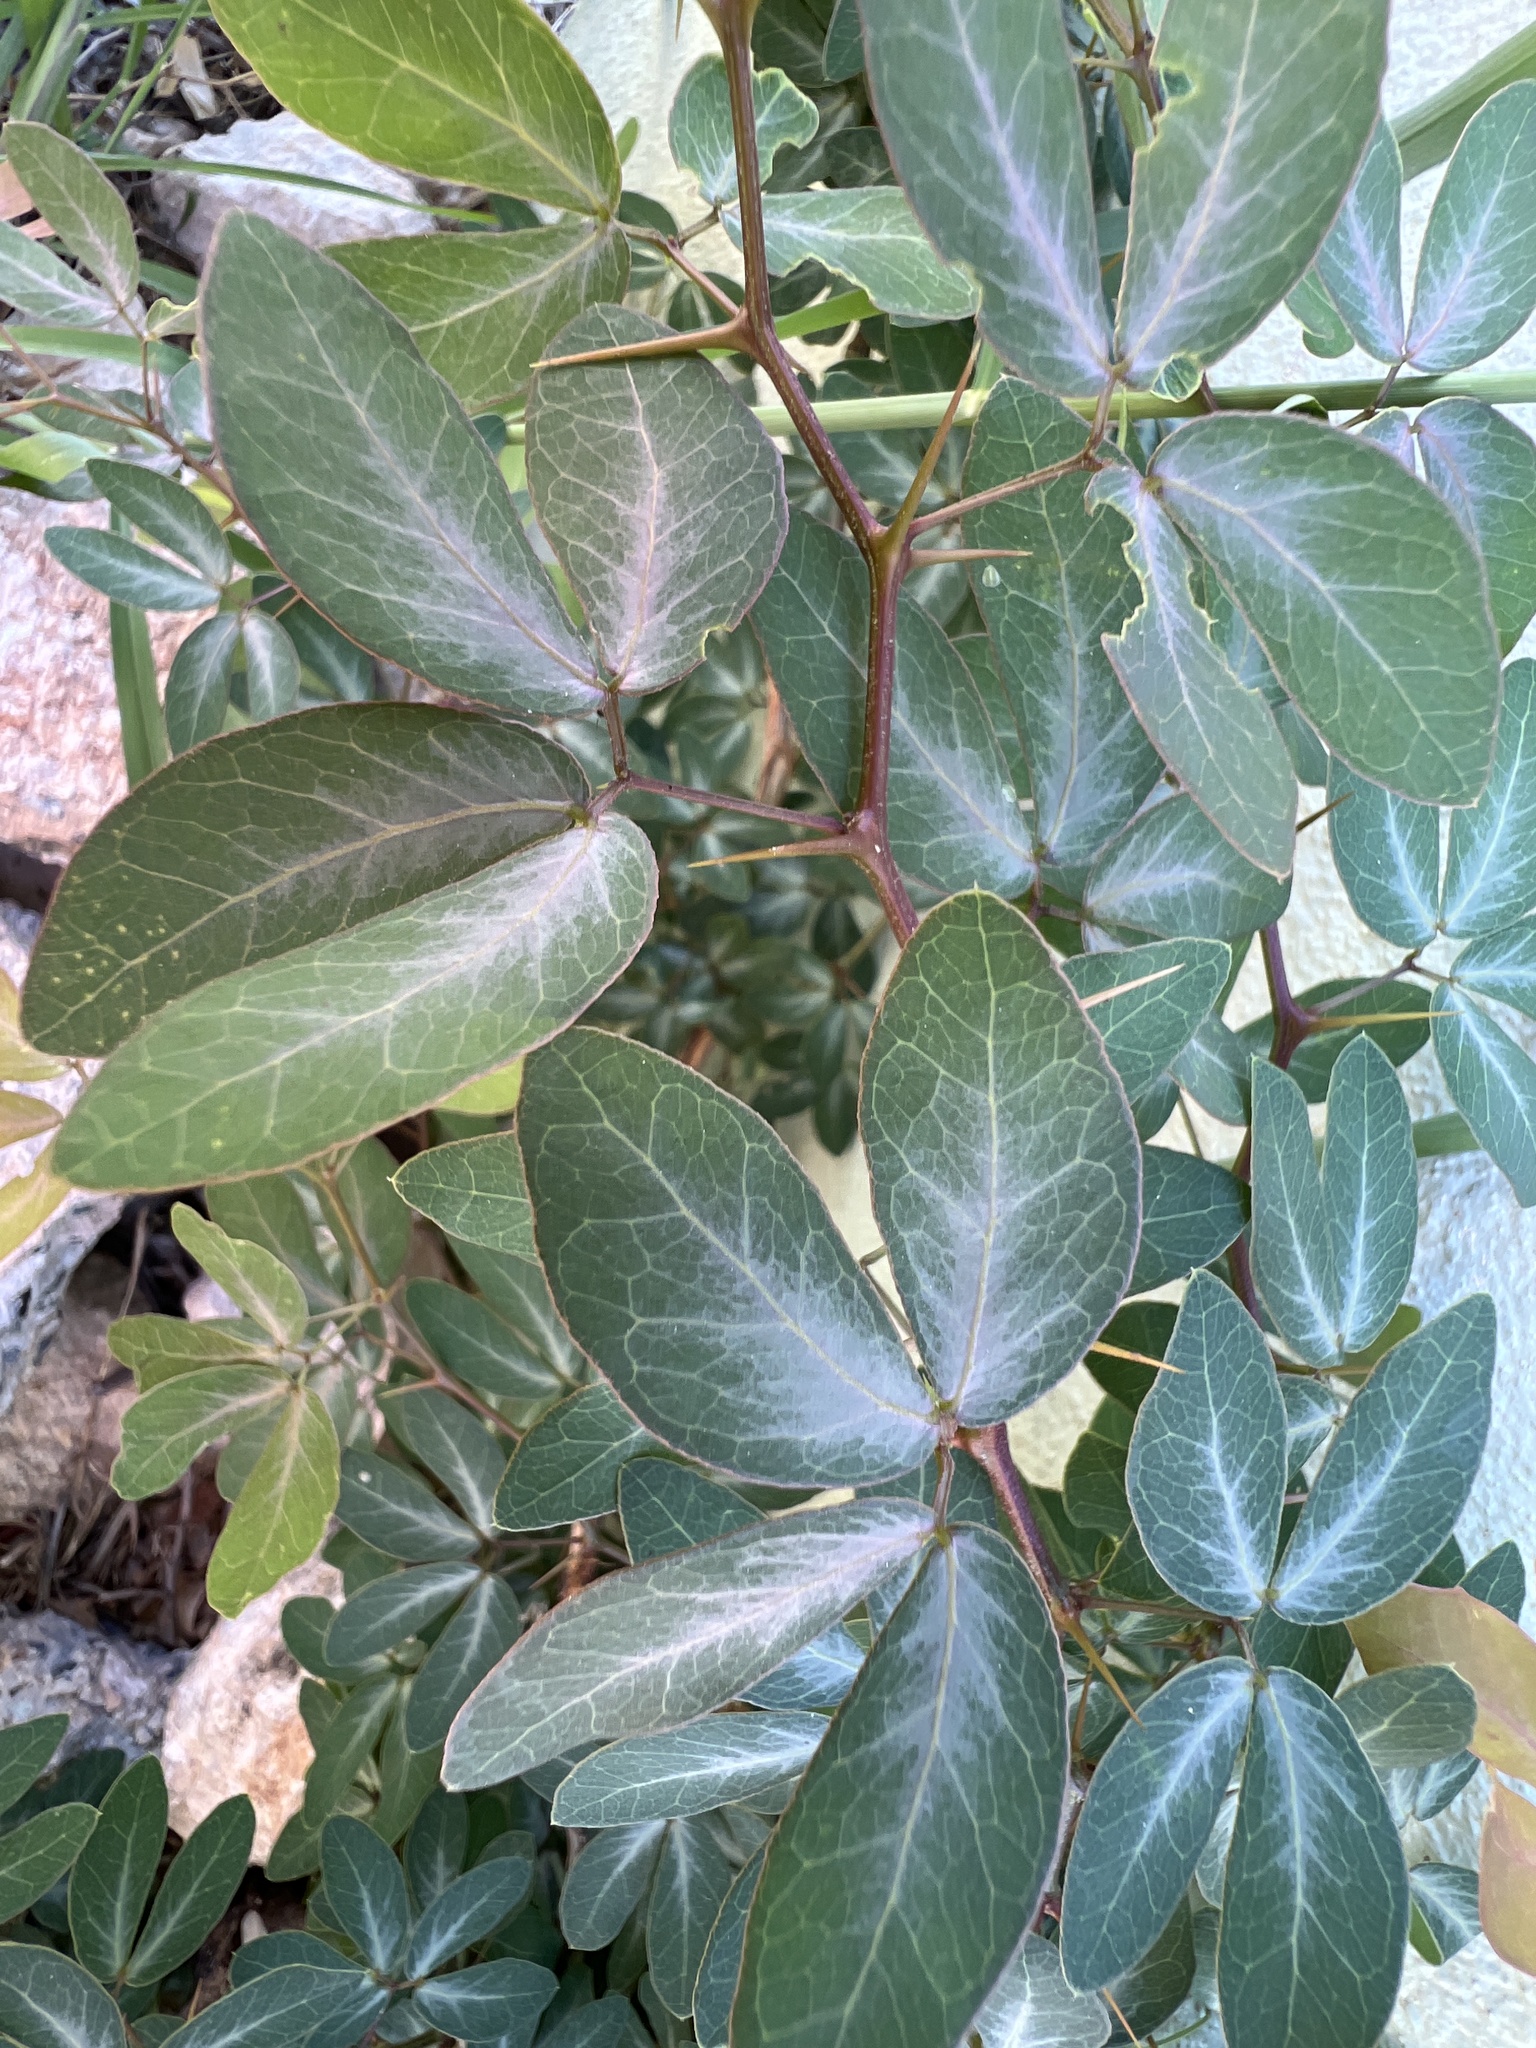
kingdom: Plantae
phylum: Tracheophyta
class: Magnoliopsida
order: Fabales
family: Fabaceae
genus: Pithecellobium
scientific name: Pithecellobium dulce
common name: Monkeypod
